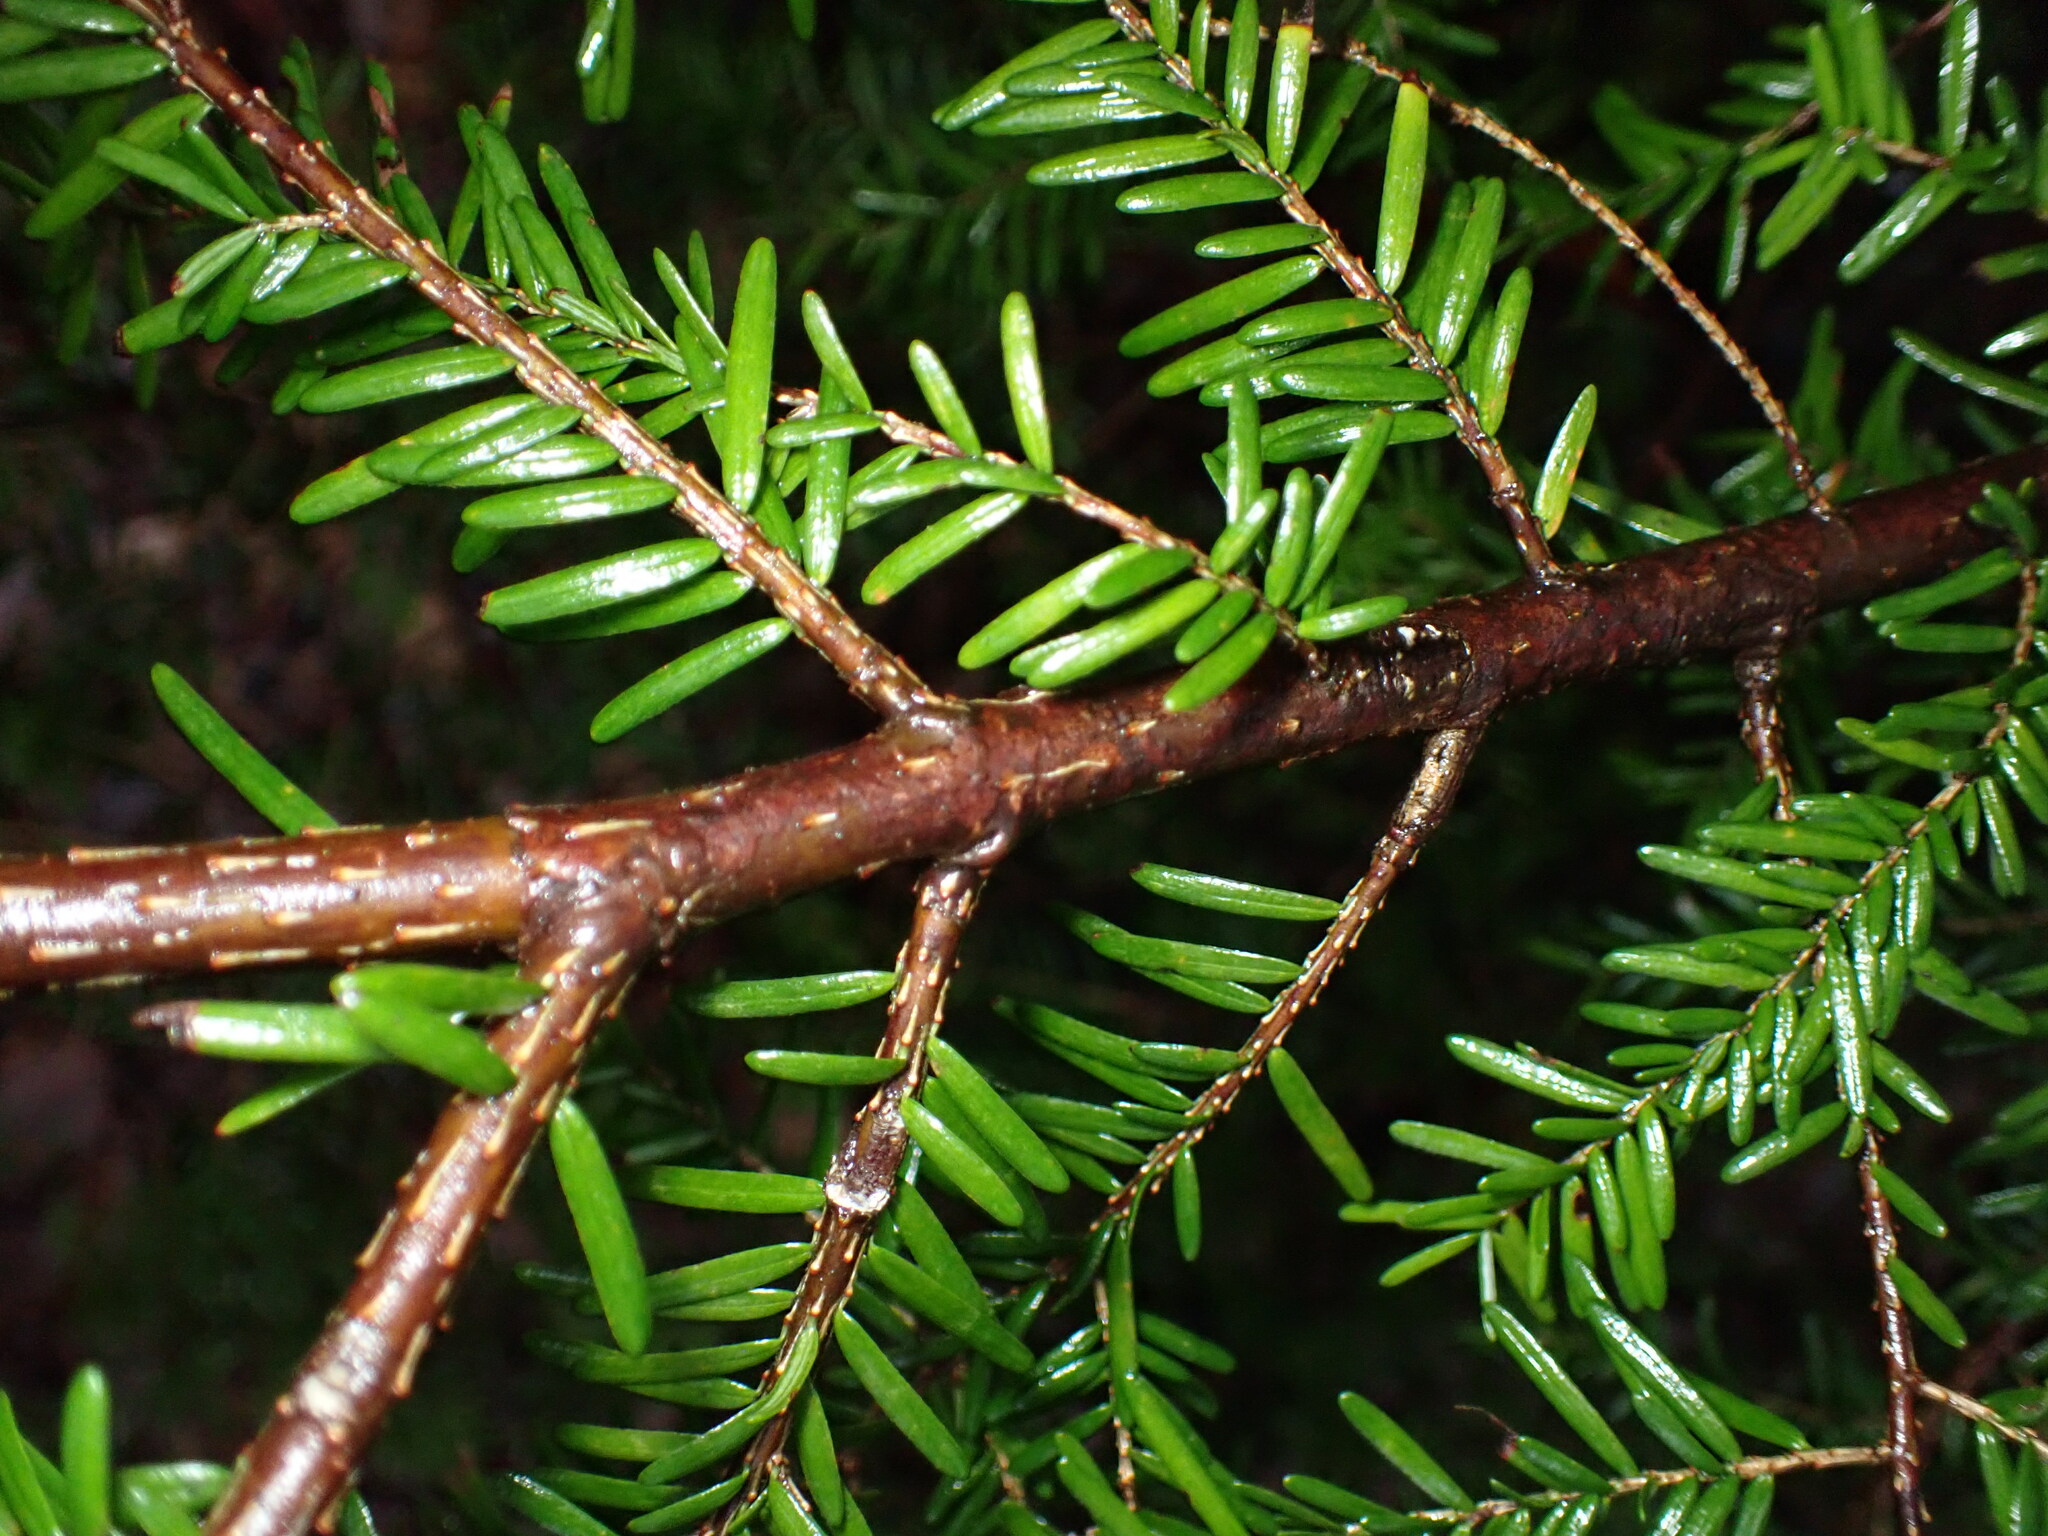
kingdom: Plantae
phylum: Tracheophyta
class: Pinopsida
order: Pinales
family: Pinaceae
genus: Tsuga
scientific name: Tsuga heterophylla
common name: Western hemlock
